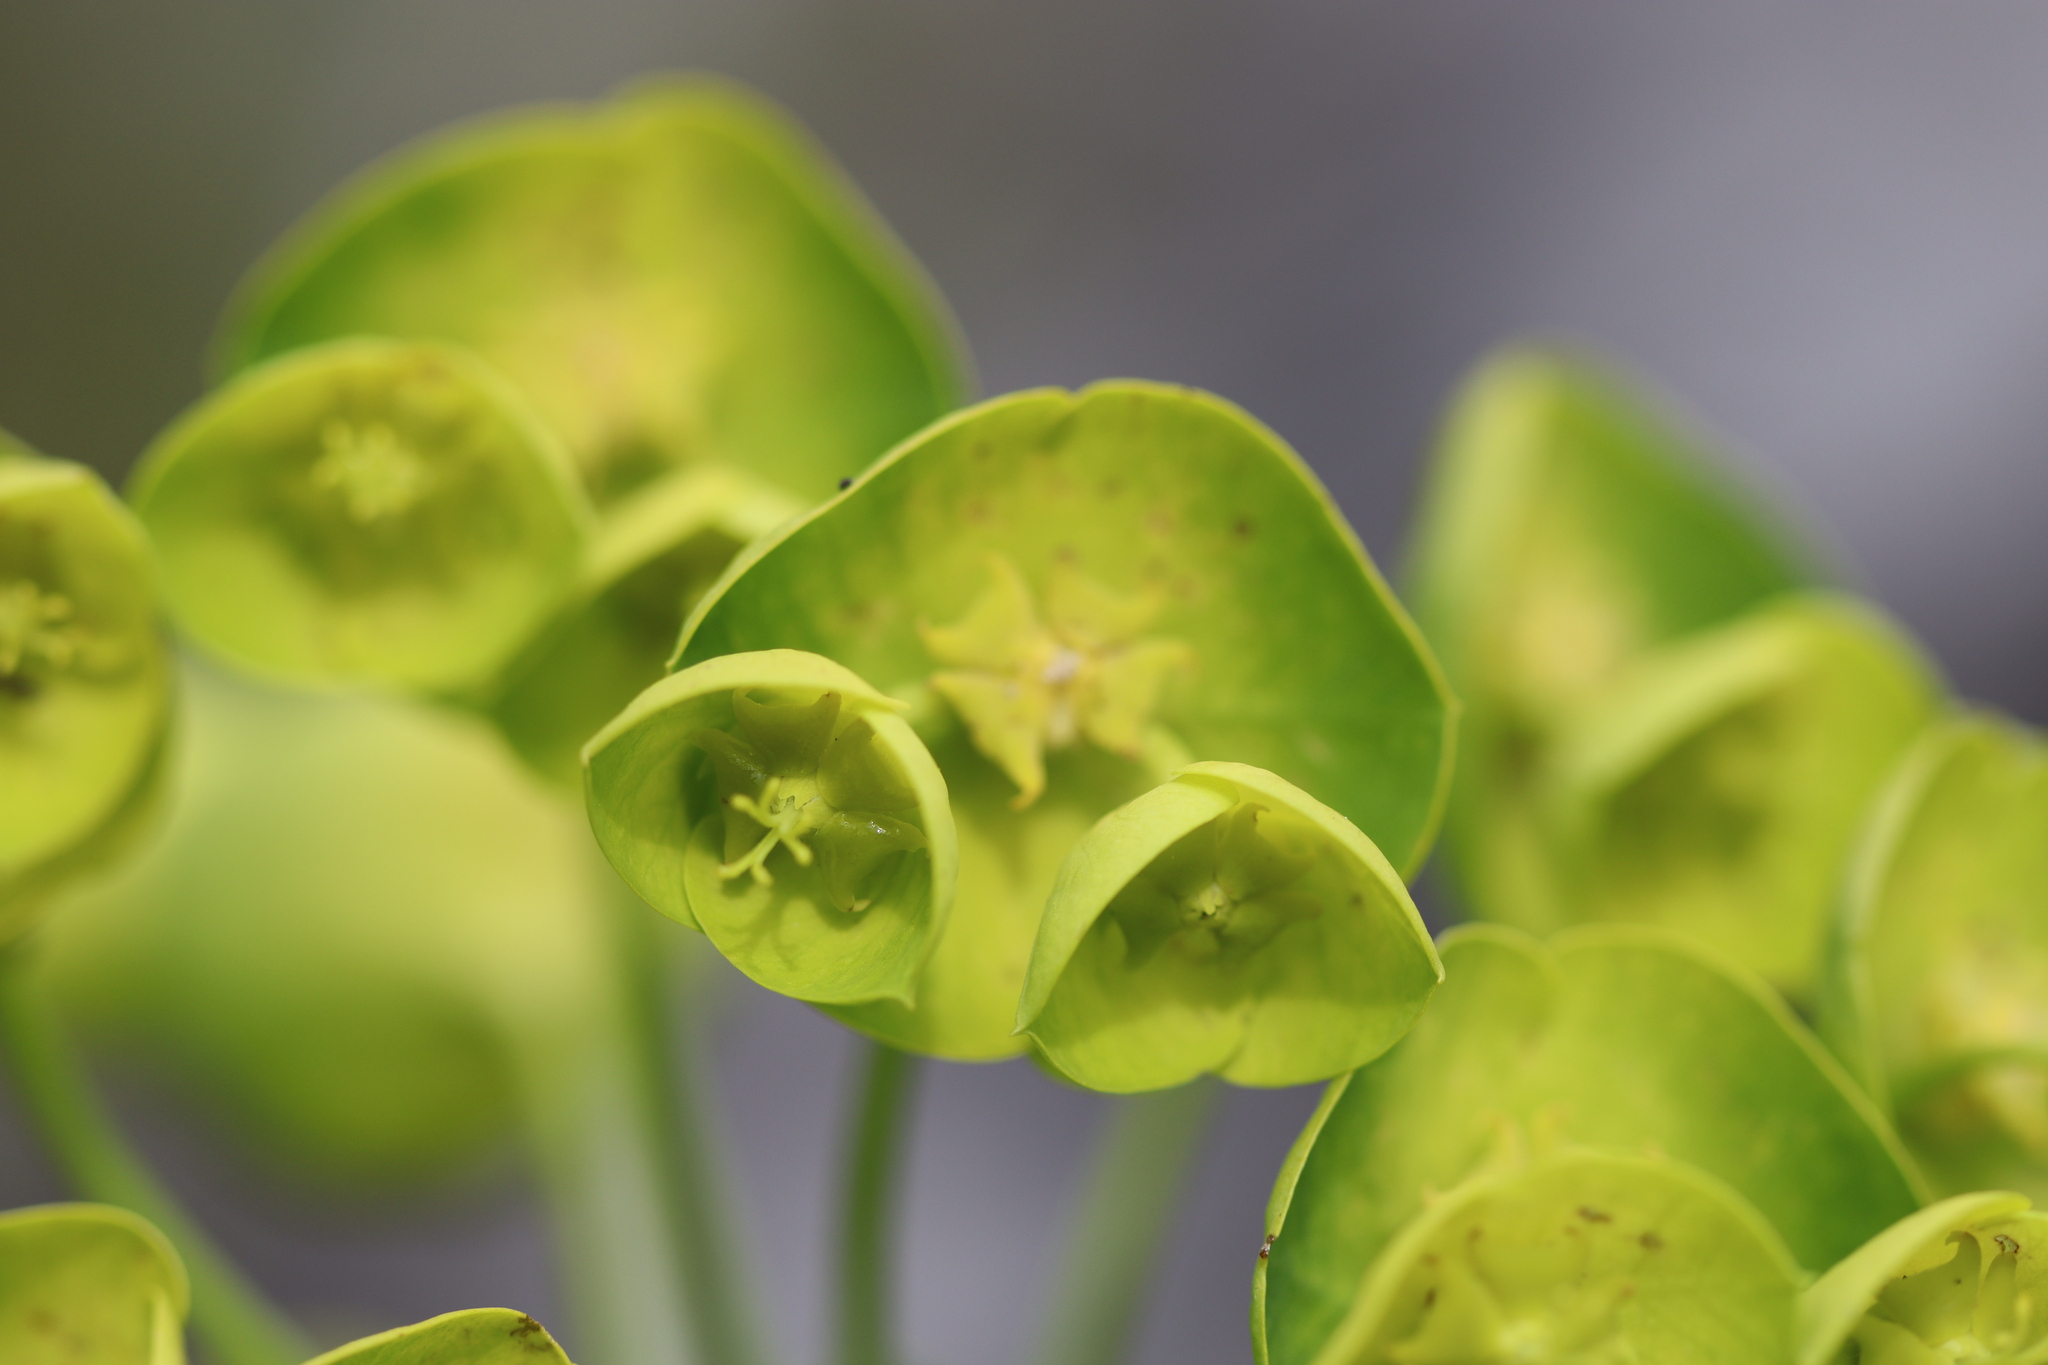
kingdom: Plantae
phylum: Tracheophyta
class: Magnoliopsida
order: Malpighiales
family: Euphorbiaceae
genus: Euphorbia
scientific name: Euphorbia characias
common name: Mediterranean spurge
